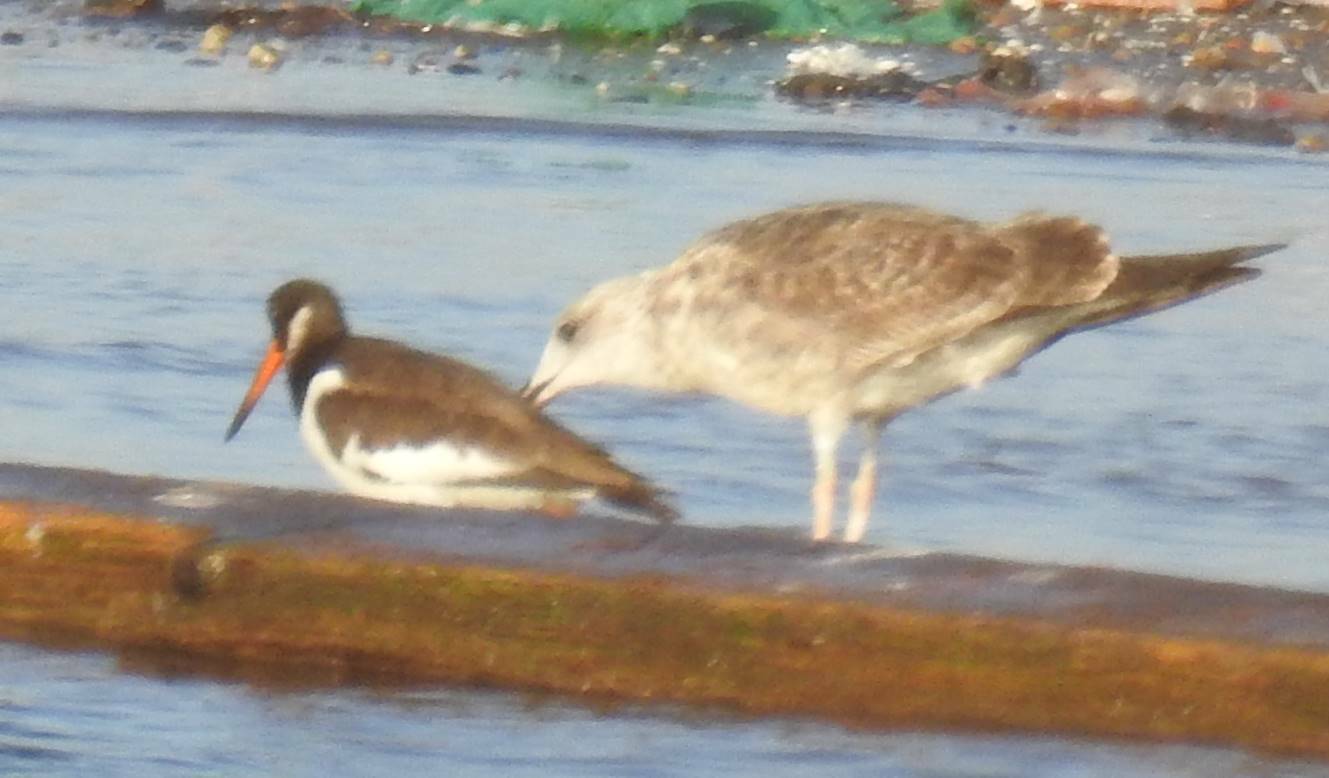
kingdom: Animalia
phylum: Chordata
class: Aves
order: Charadriiformes
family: Haematopodidae
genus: Haematopus
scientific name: Haematopus ostralegus
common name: Eurasian oystercatcher
